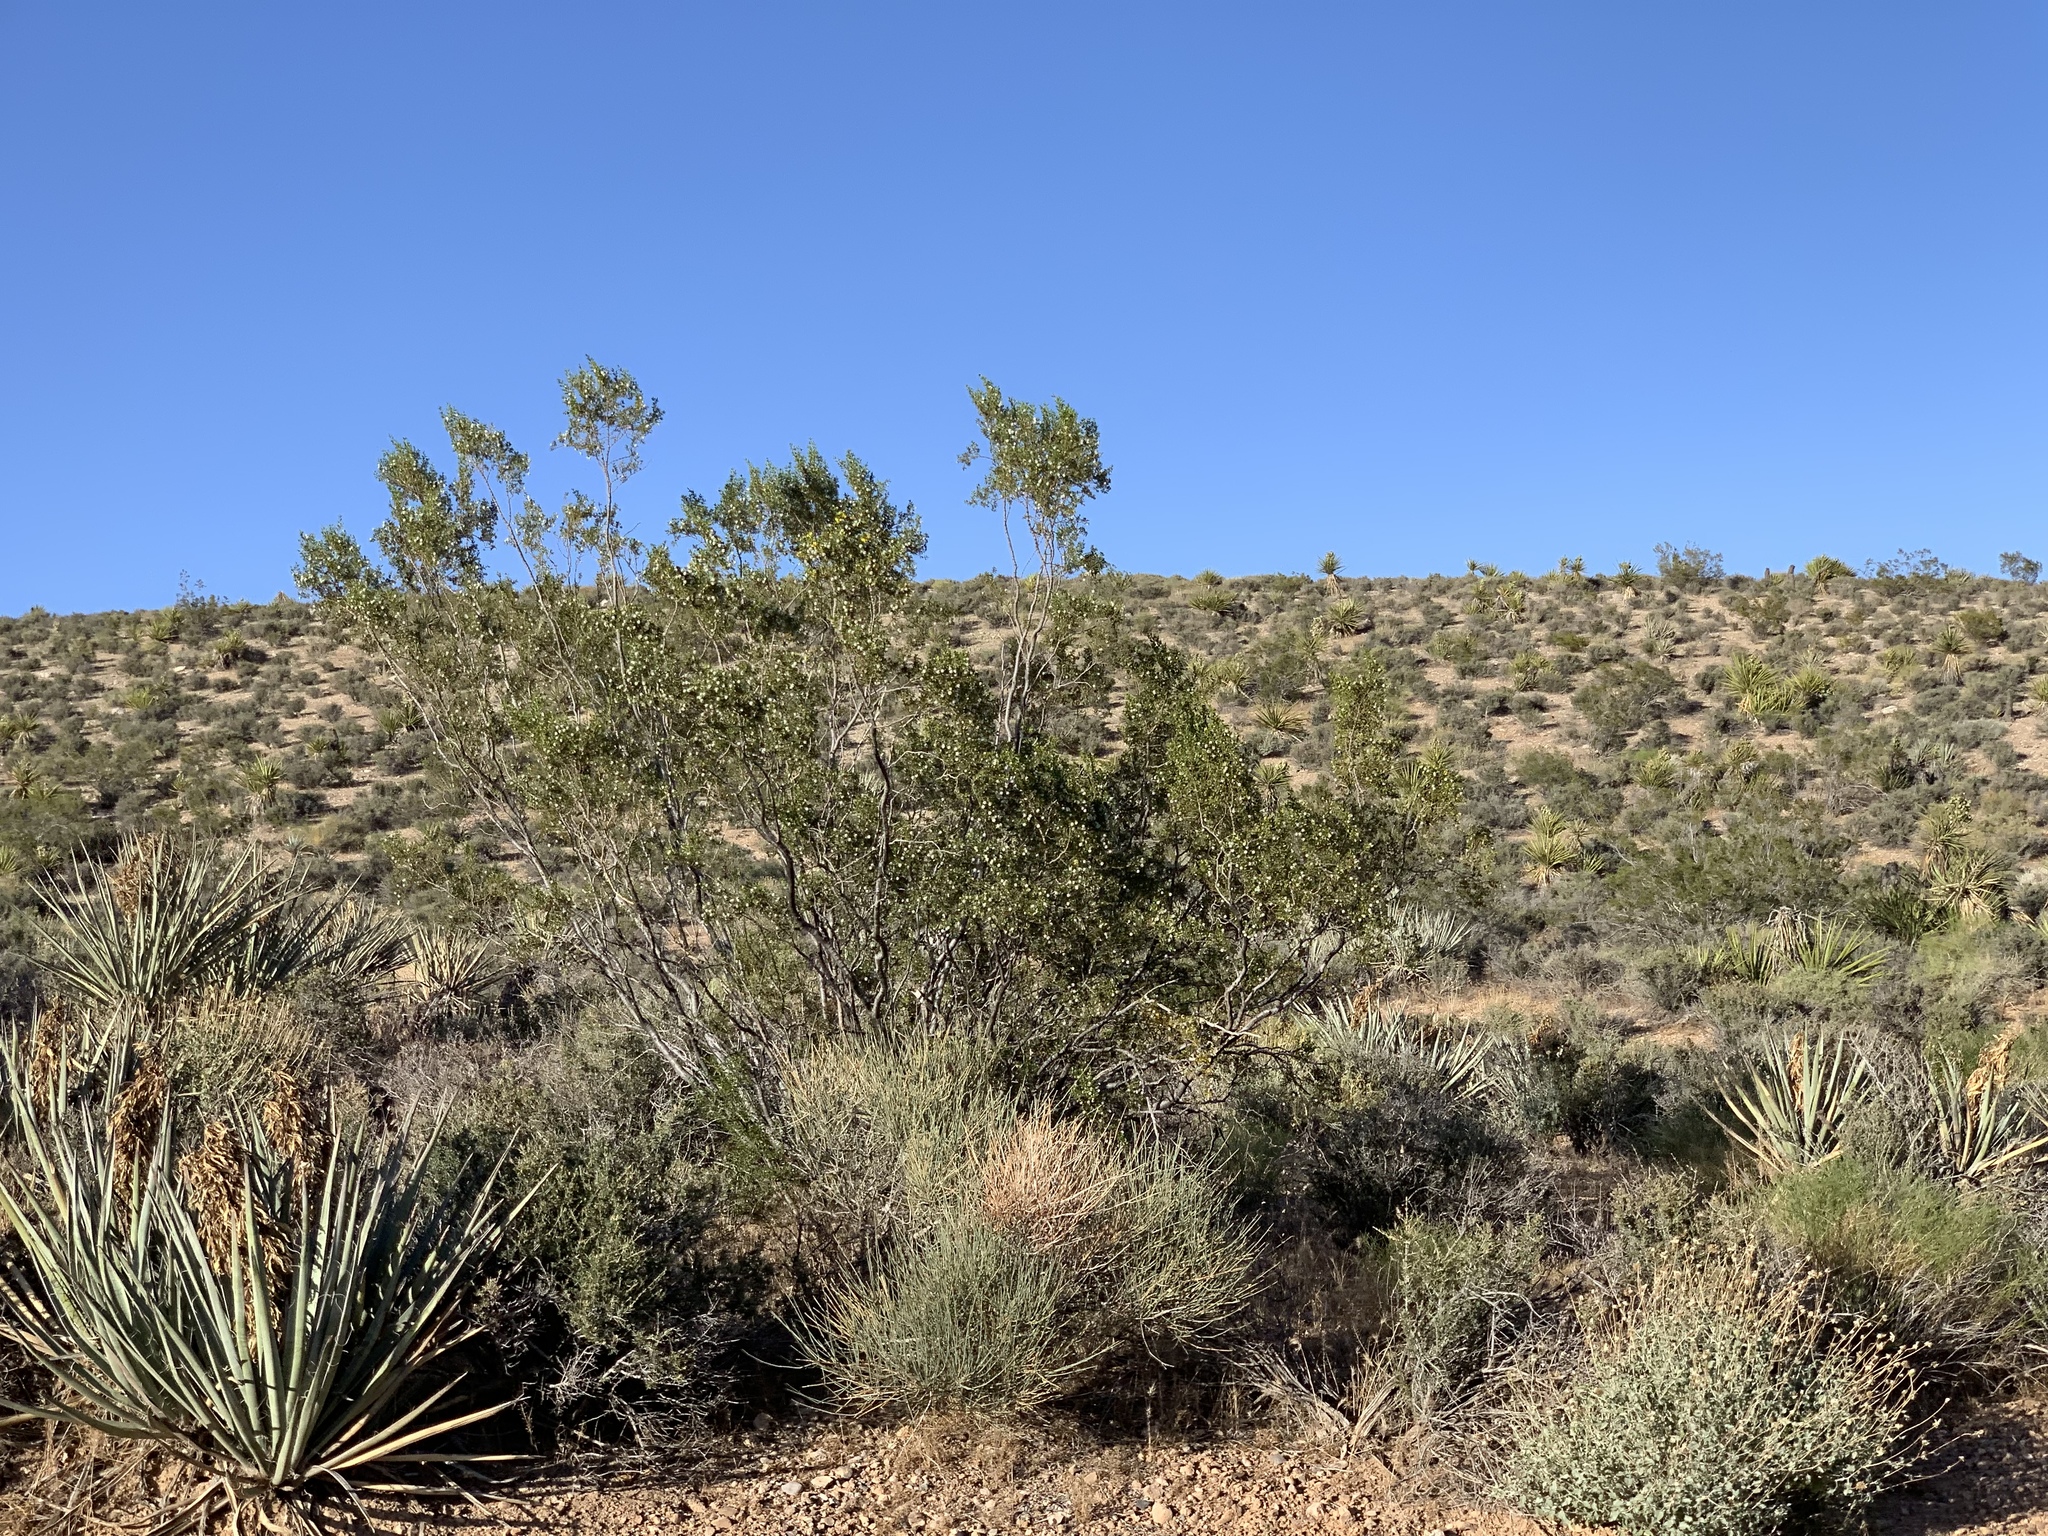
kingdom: Plantae
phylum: Tracheophyta
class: Magnoliopsida
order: Zygophyllales
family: Zygophyllaceae
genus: Larrea
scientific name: Larrea tridentata
